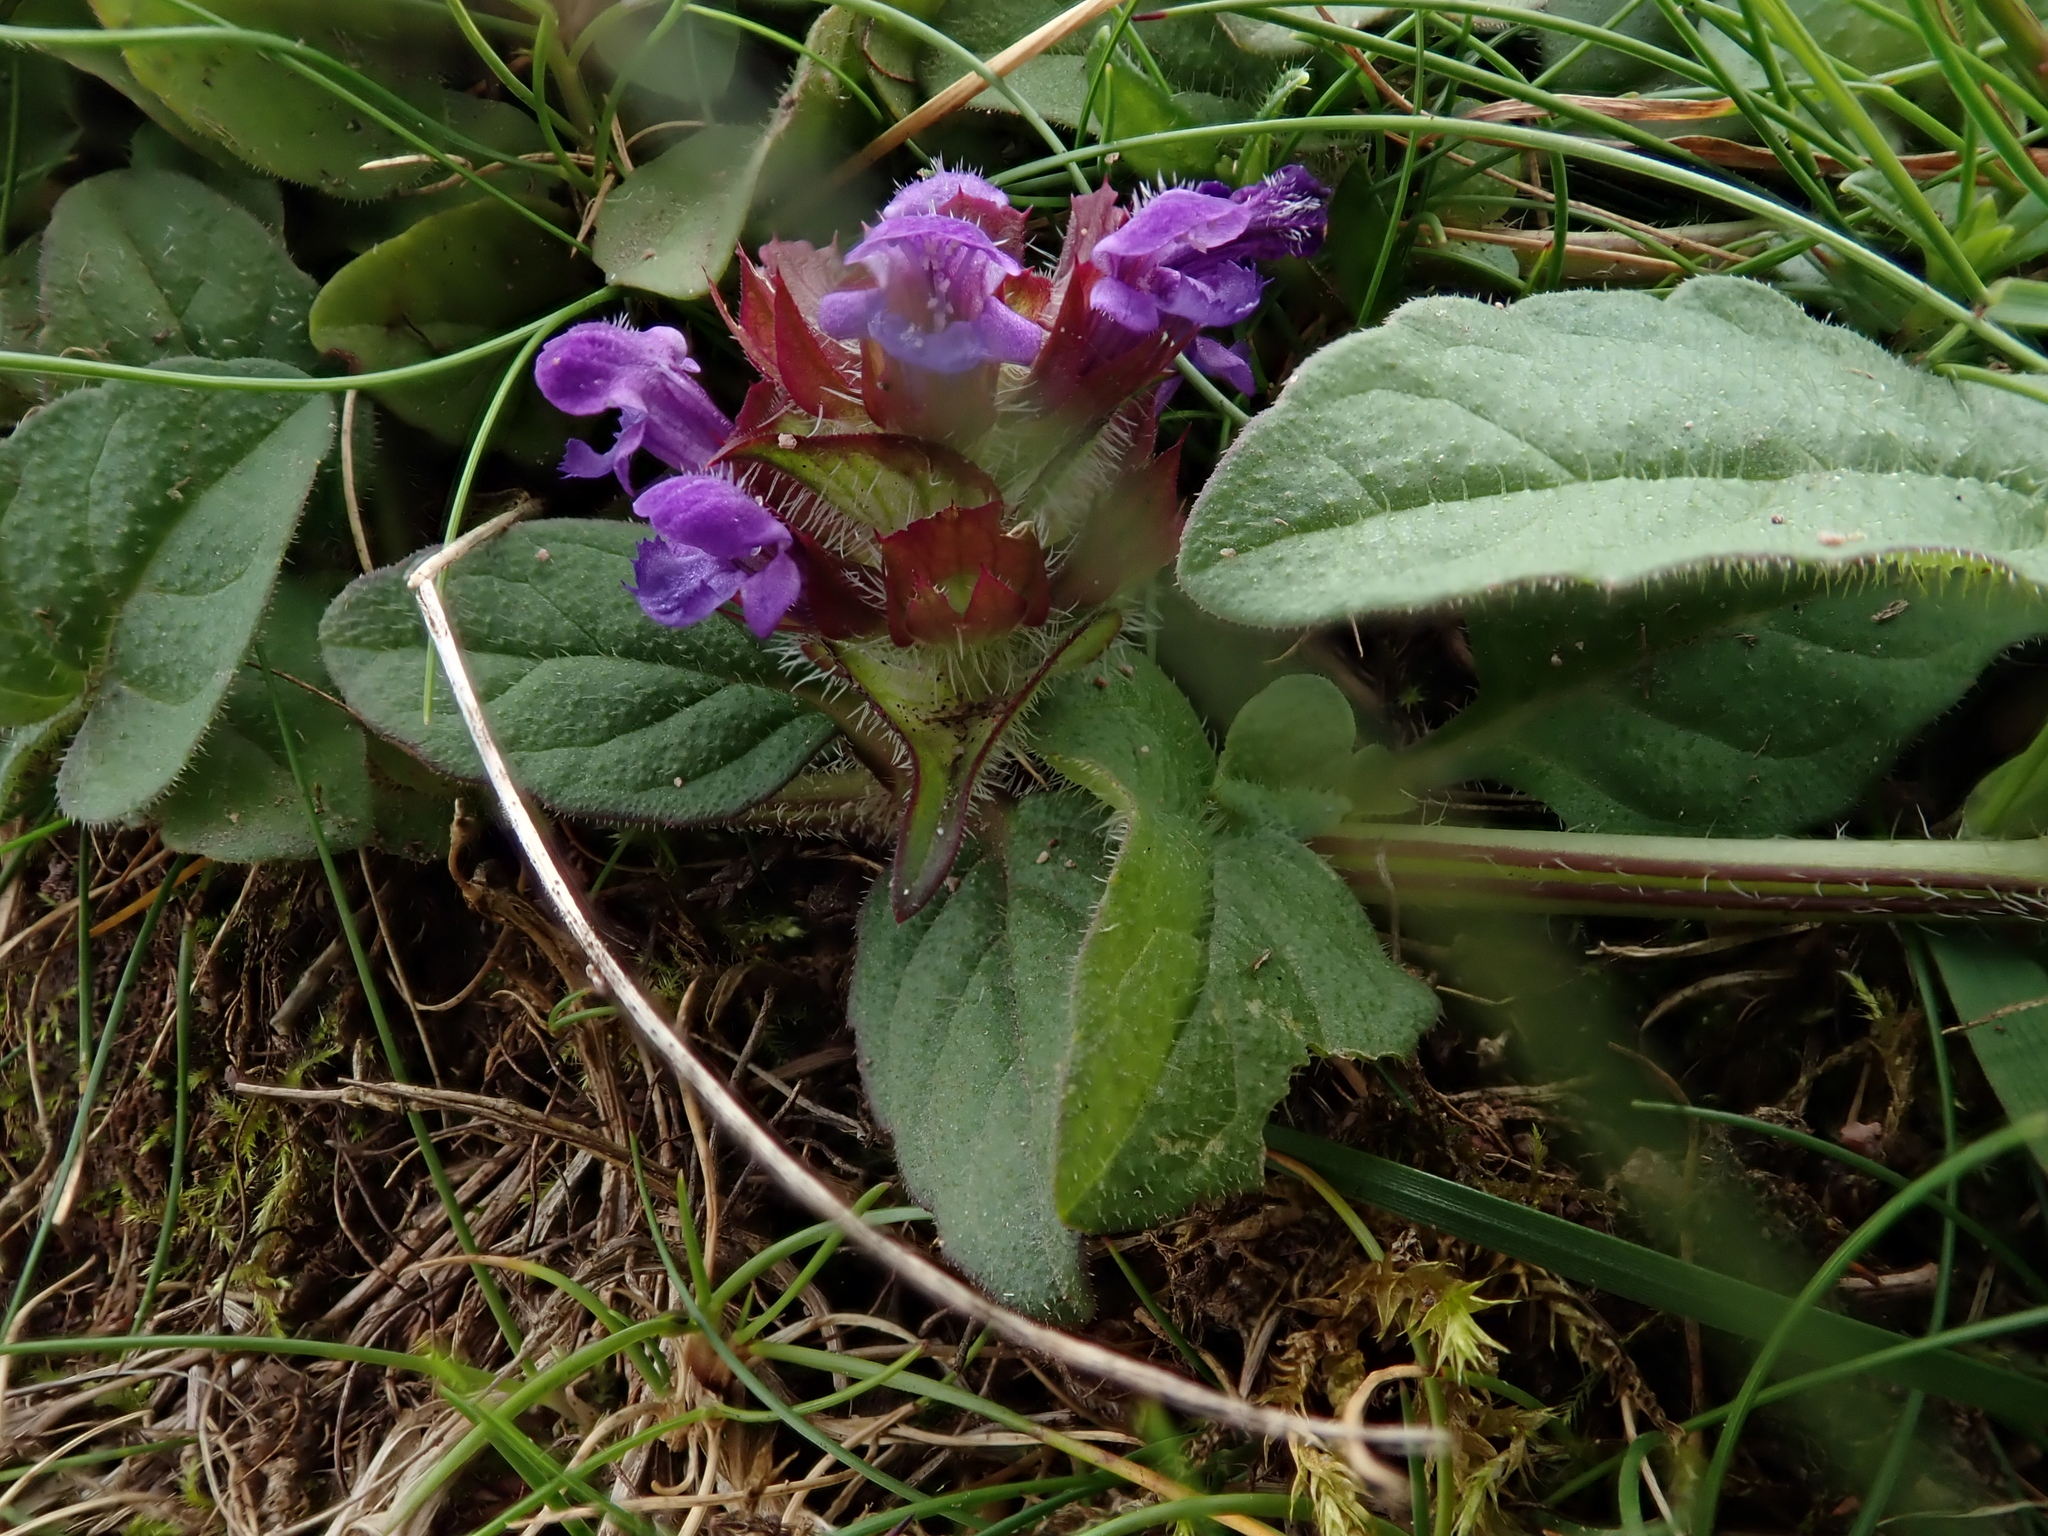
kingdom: Plantae
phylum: Tracheophyta
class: Magnoliopsida
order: Lamiales
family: Lamiaceae
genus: Prunella
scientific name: Prunella vulgaris
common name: Heal-all
